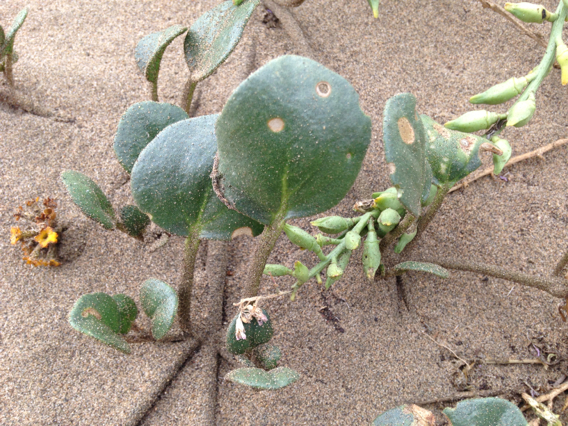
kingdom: Plantae
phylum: Tracheophyta
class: Magnoliopsida
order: Caryophyllales
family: Nyctaginaceae
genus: Abronia
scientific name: Abronia latifolia
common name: Yellow sand-verbena
